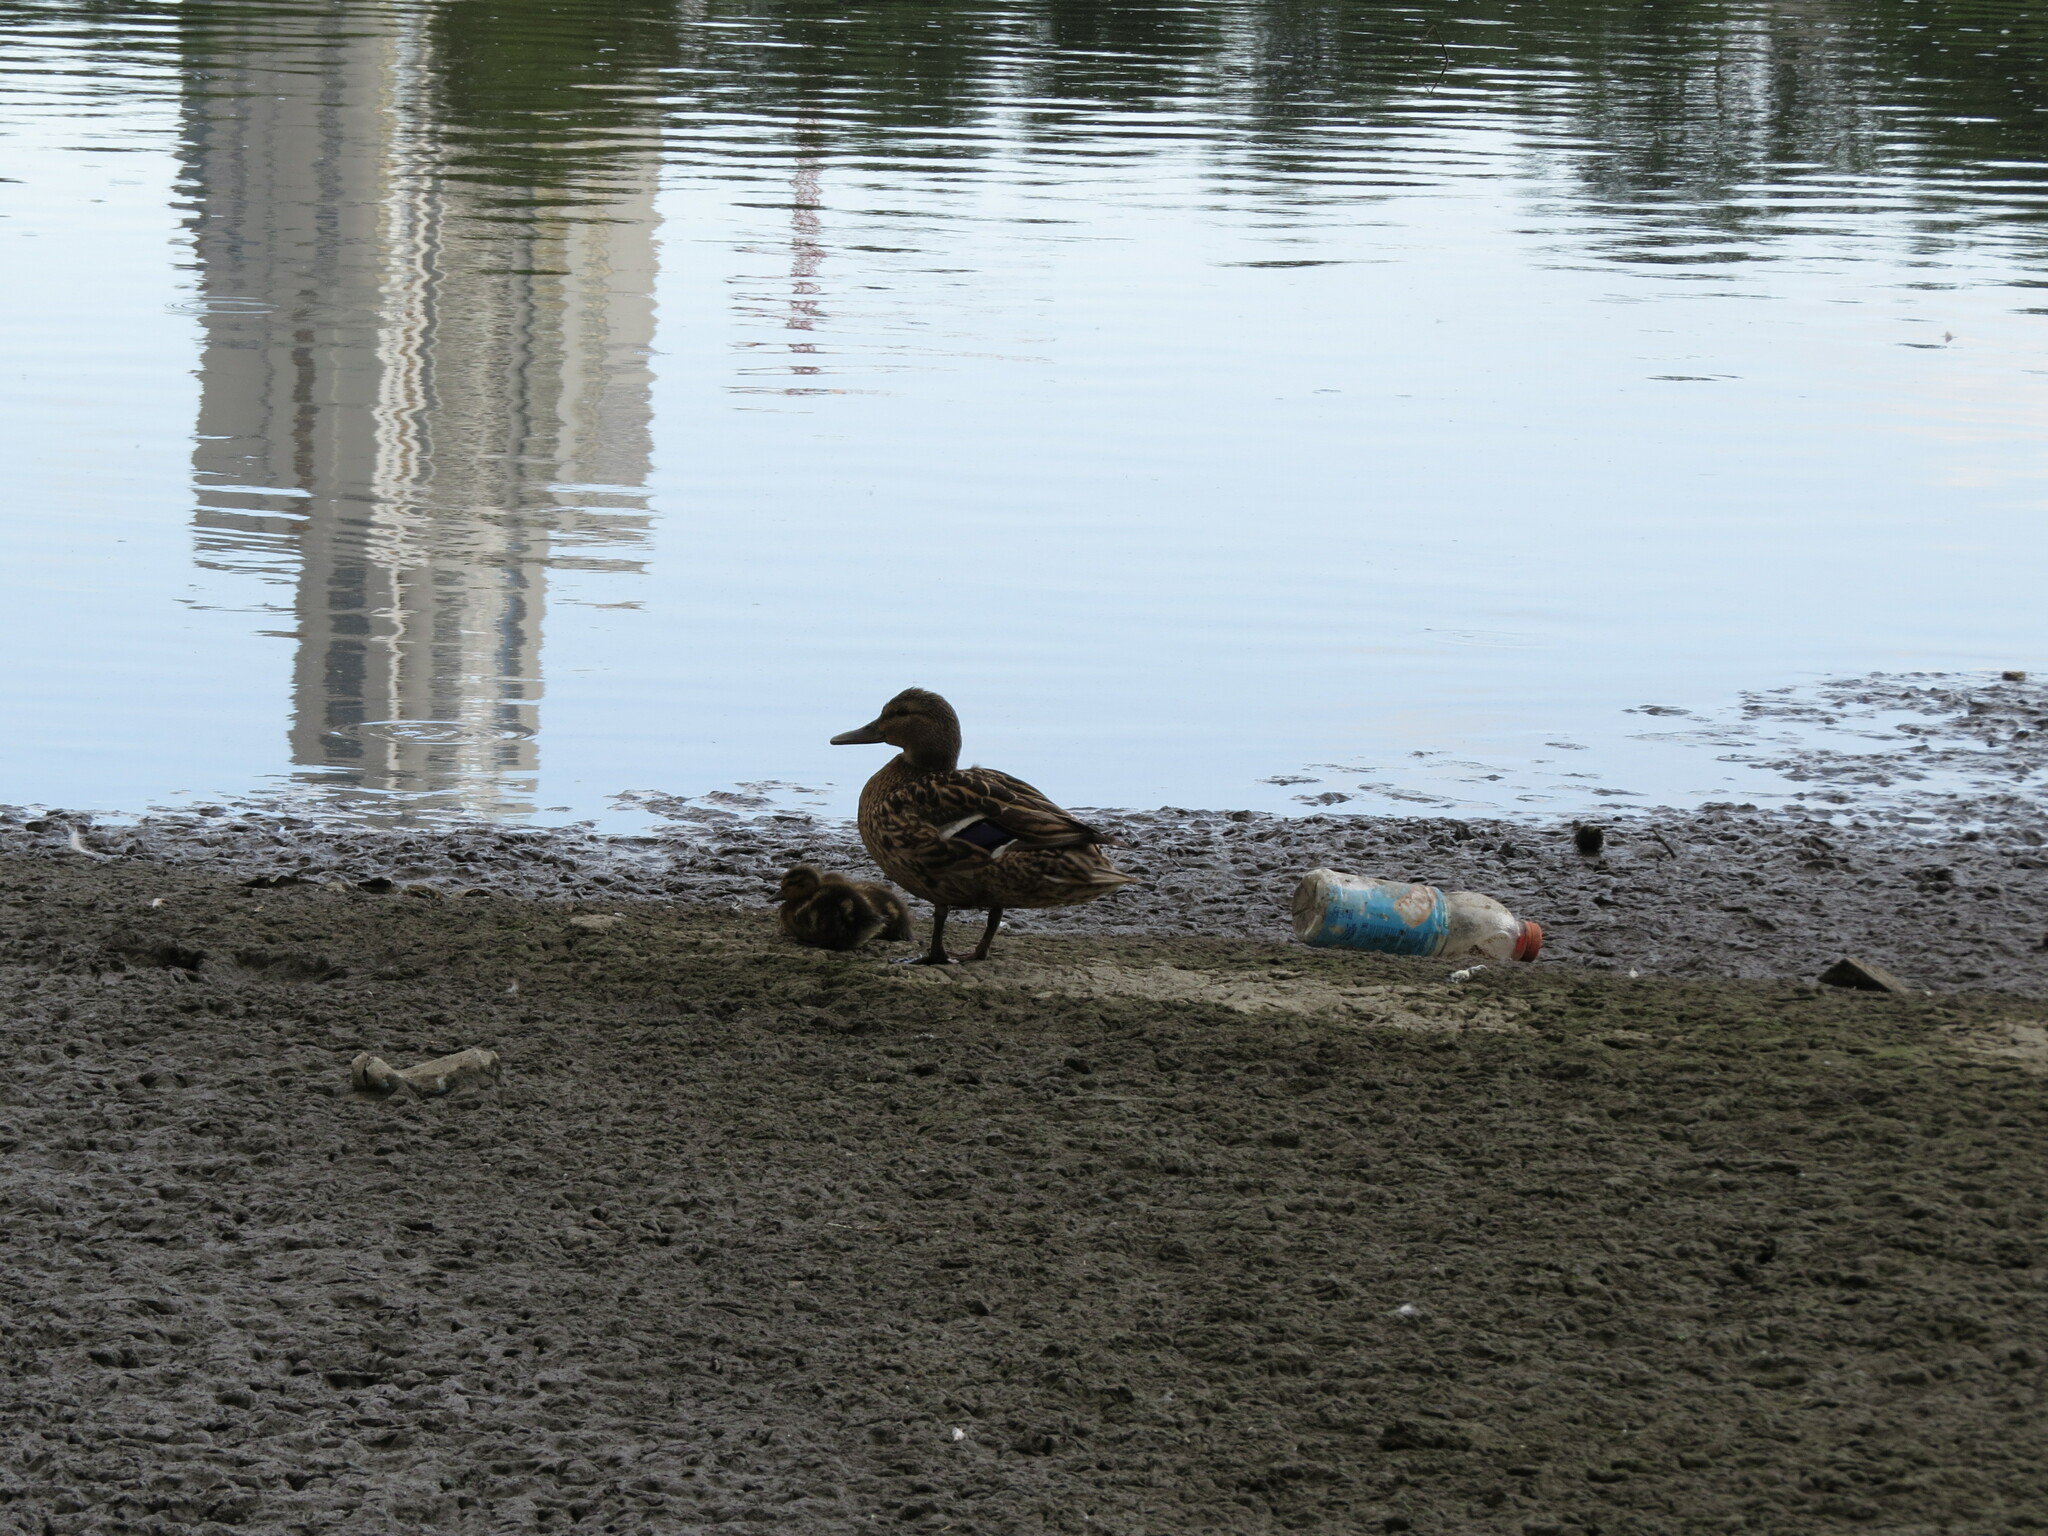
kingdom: Animalia
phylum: Chordata
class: Aves
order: Anseriformes
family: Anatidae
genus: Anas
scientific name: Anas platyrhynchos
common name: Mallard
